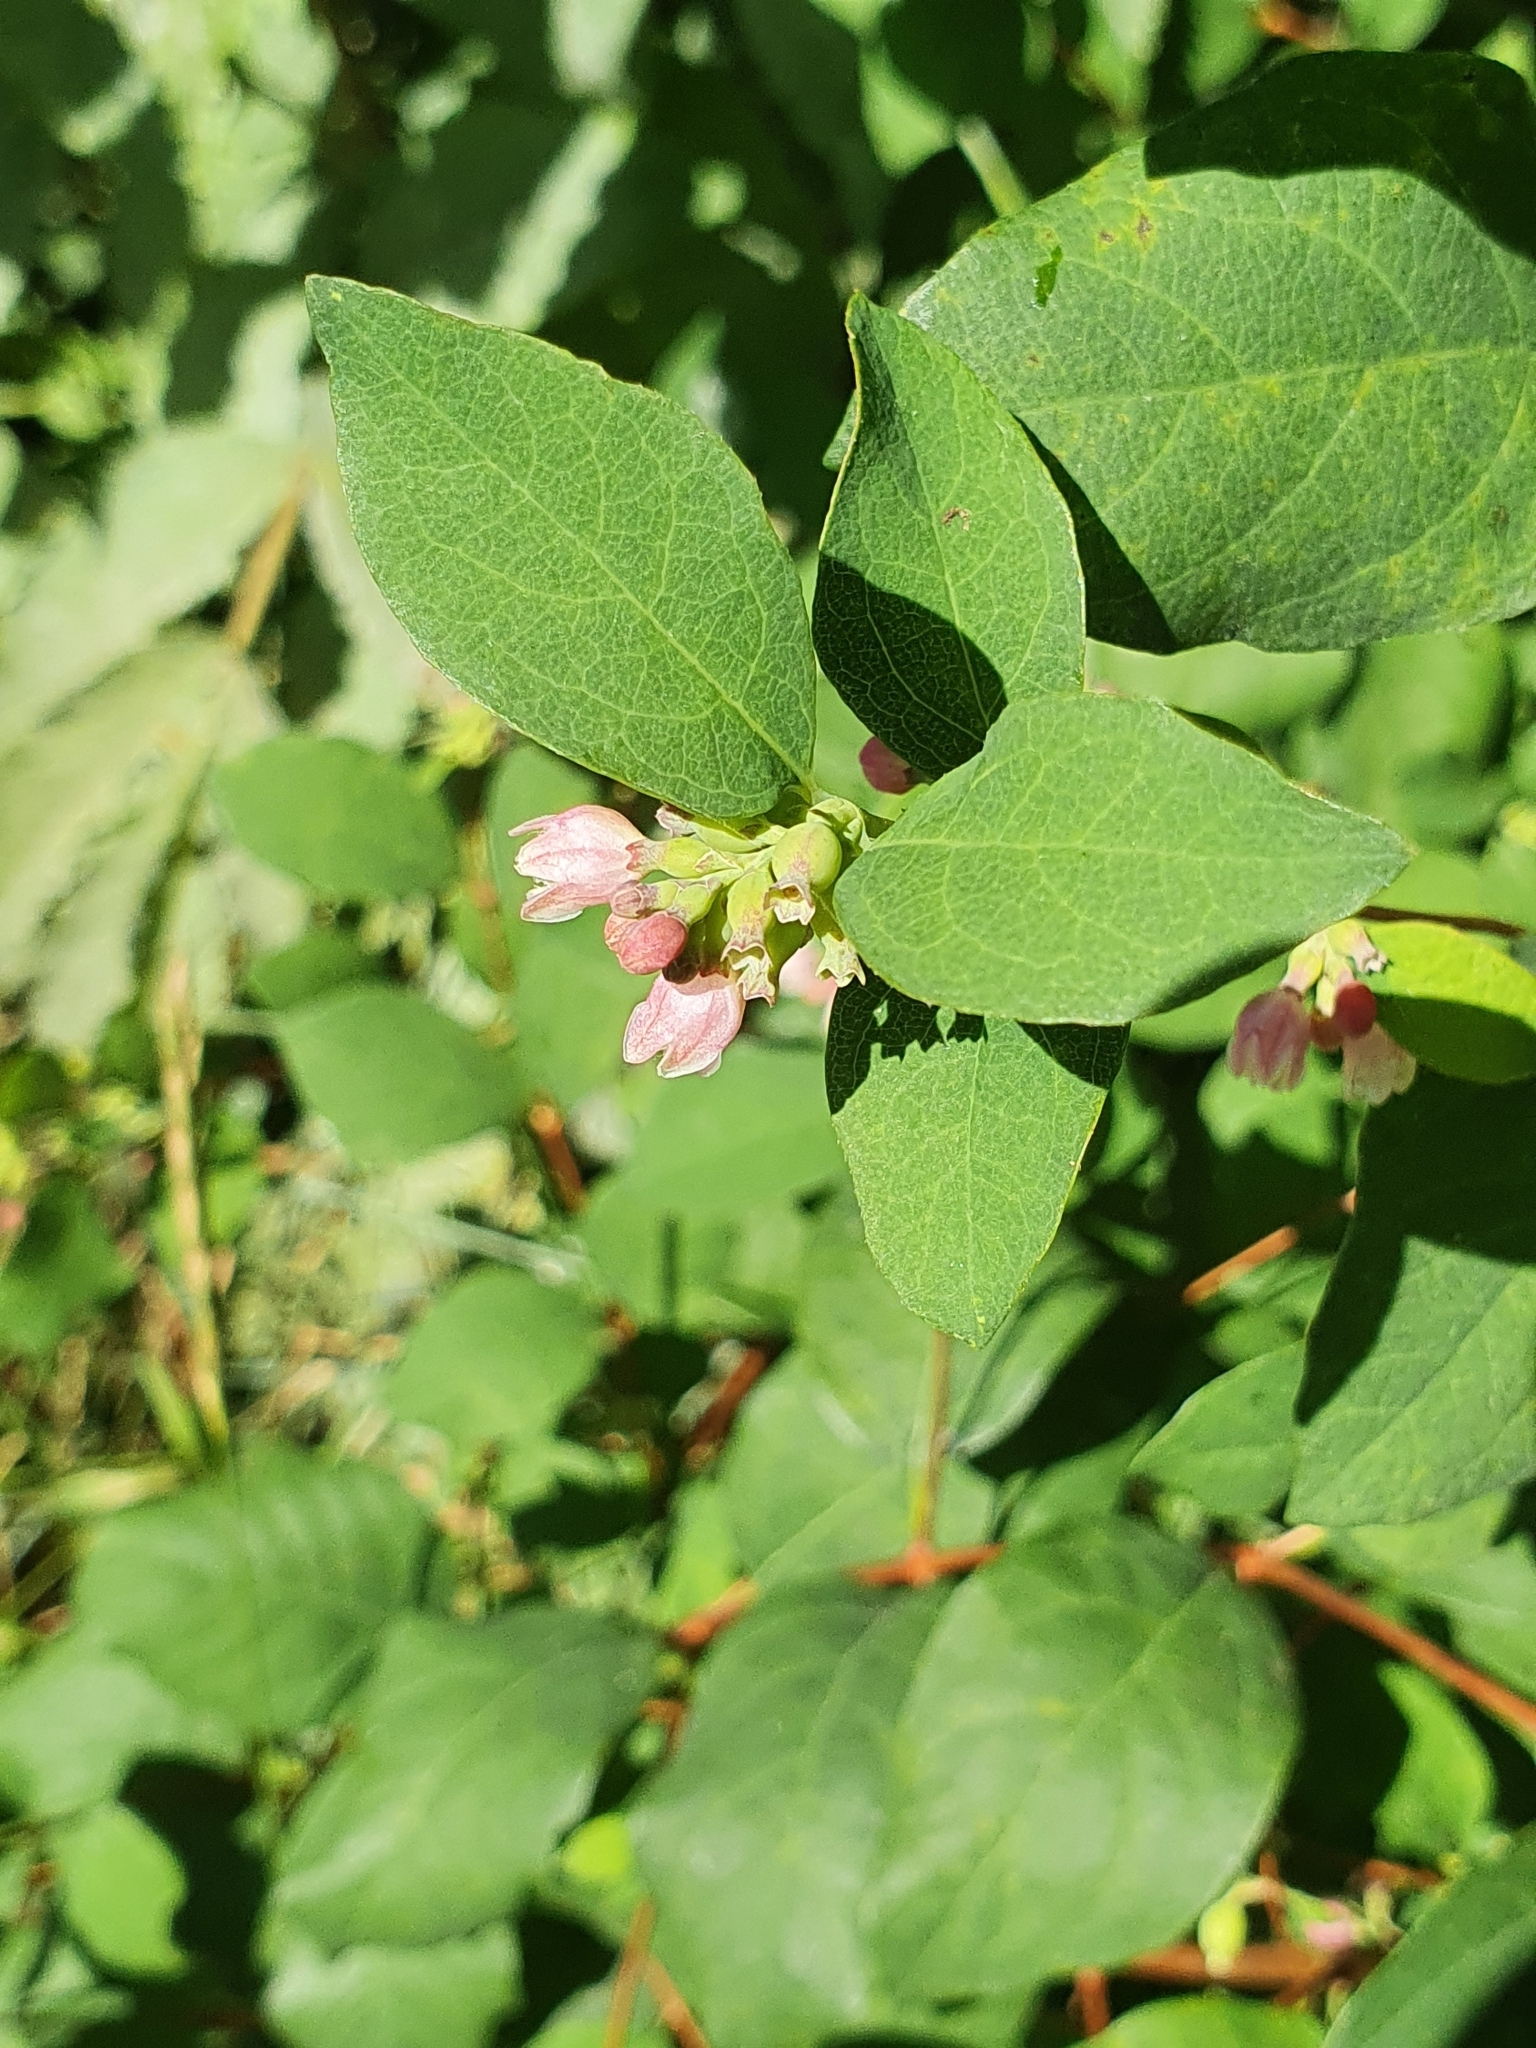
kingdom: Plantae
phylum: Tracheophyta
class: Magnoliopsida
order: Dipsacales
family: Caprifoliaceae
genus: Symphoricarpos
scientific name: Symphoricarpos albus
